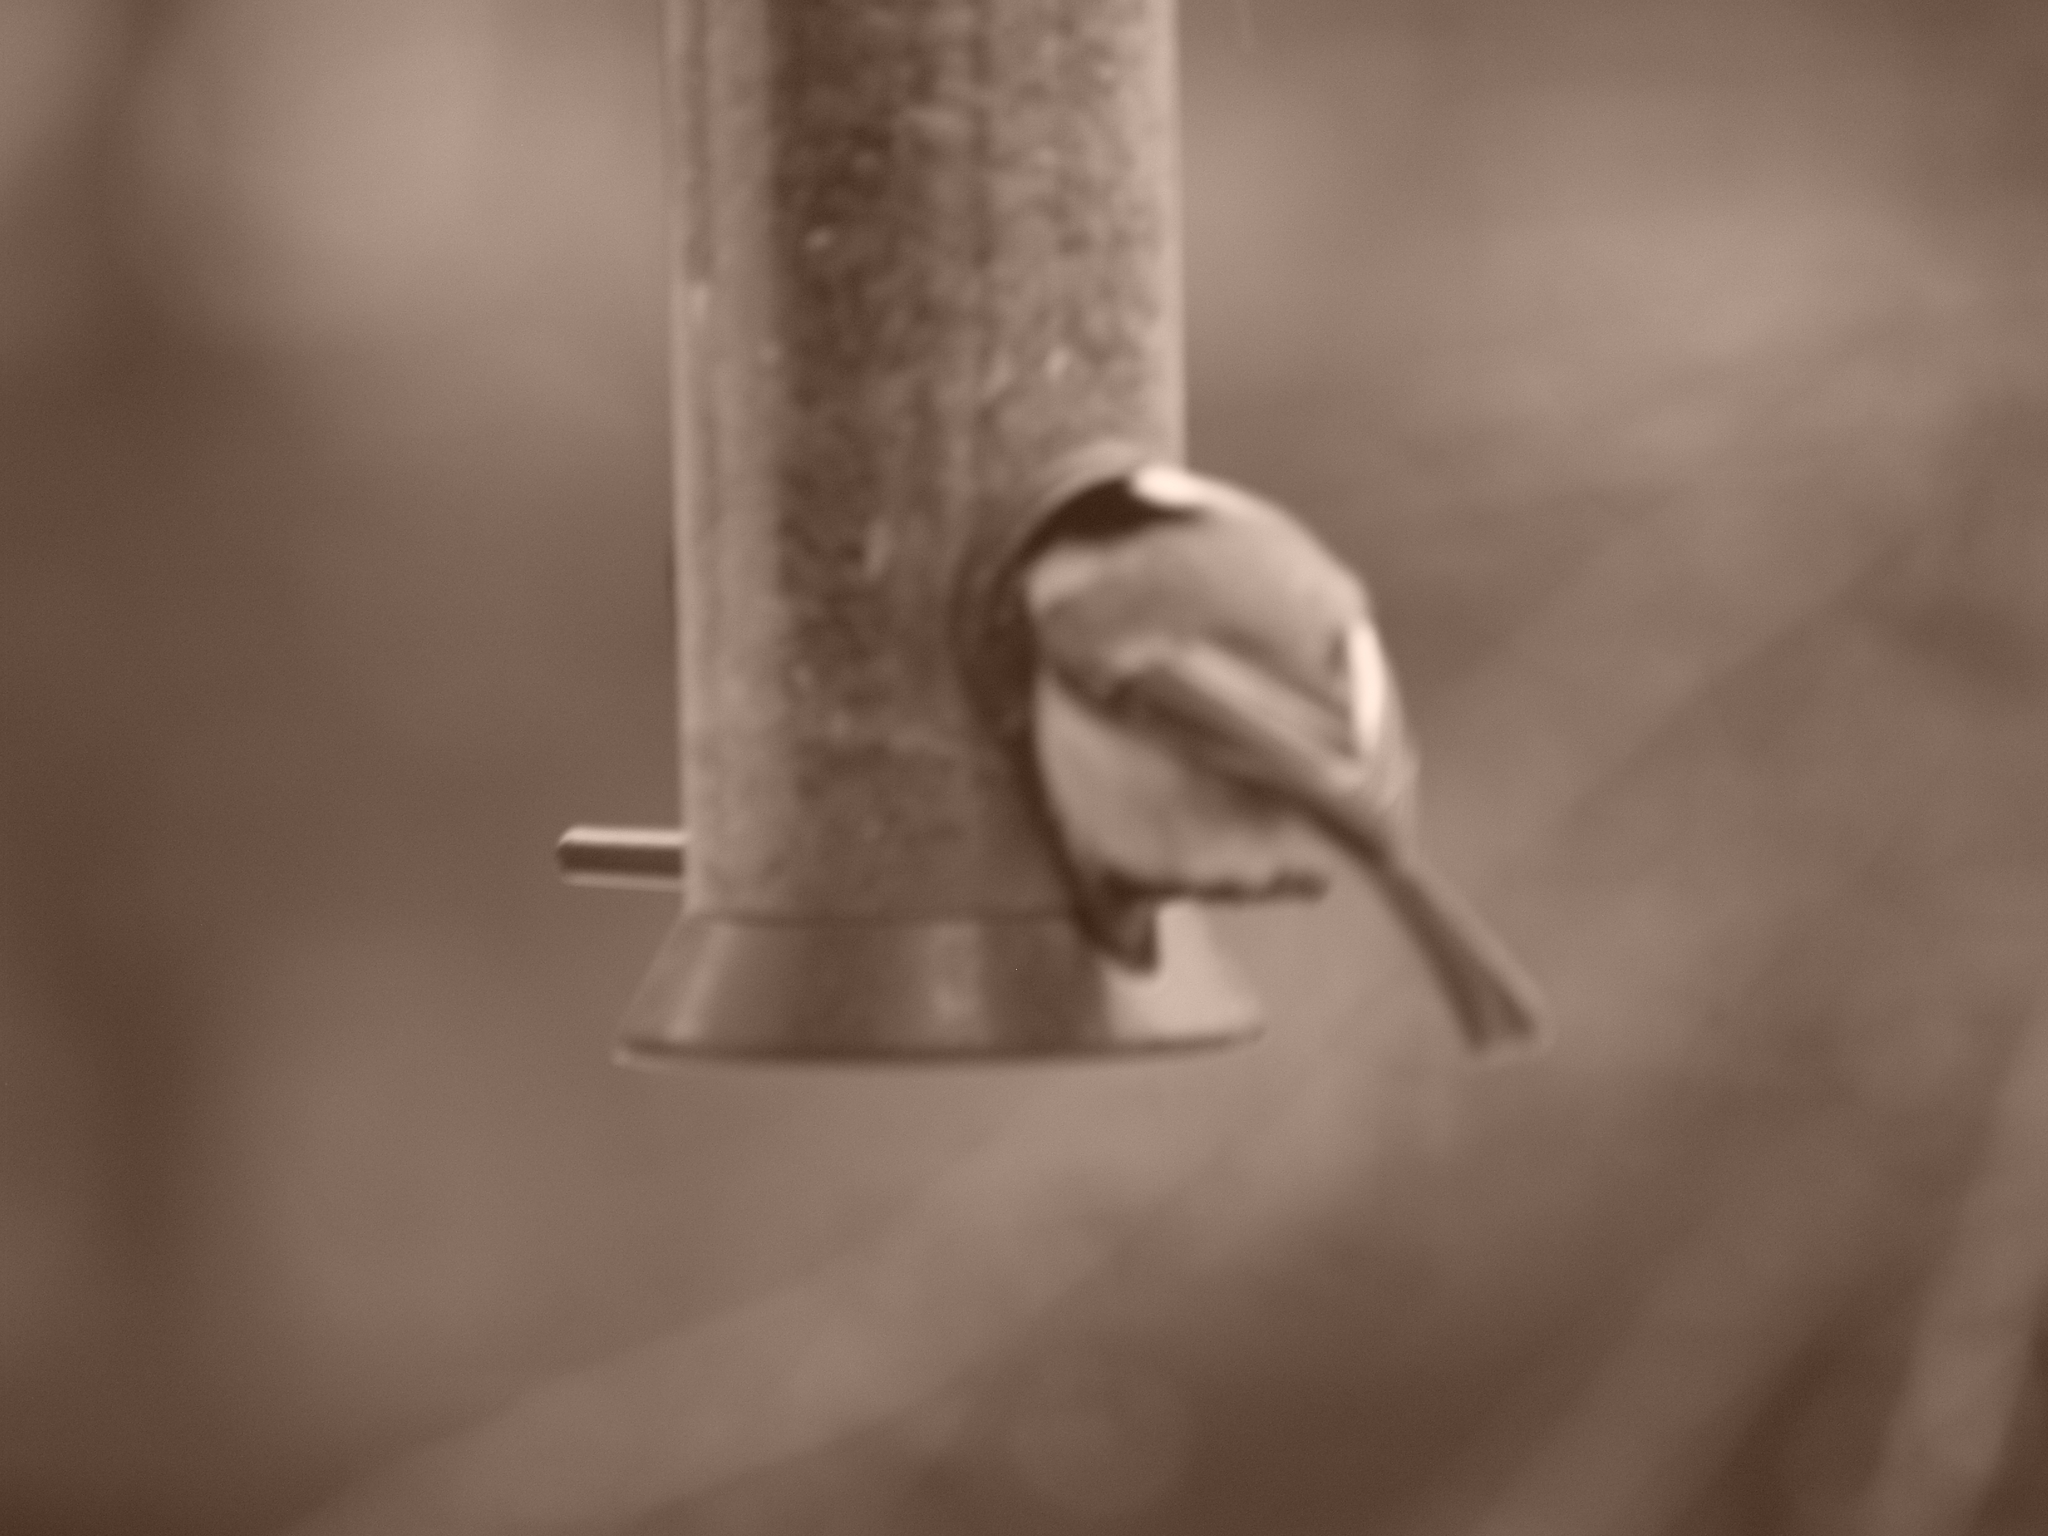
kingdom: Animalia
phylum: Chordata
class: Aves
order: Passeriformes
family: Paridae
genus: Poecile
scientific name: Poecile atricapillus
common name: Black-capped chickadee
